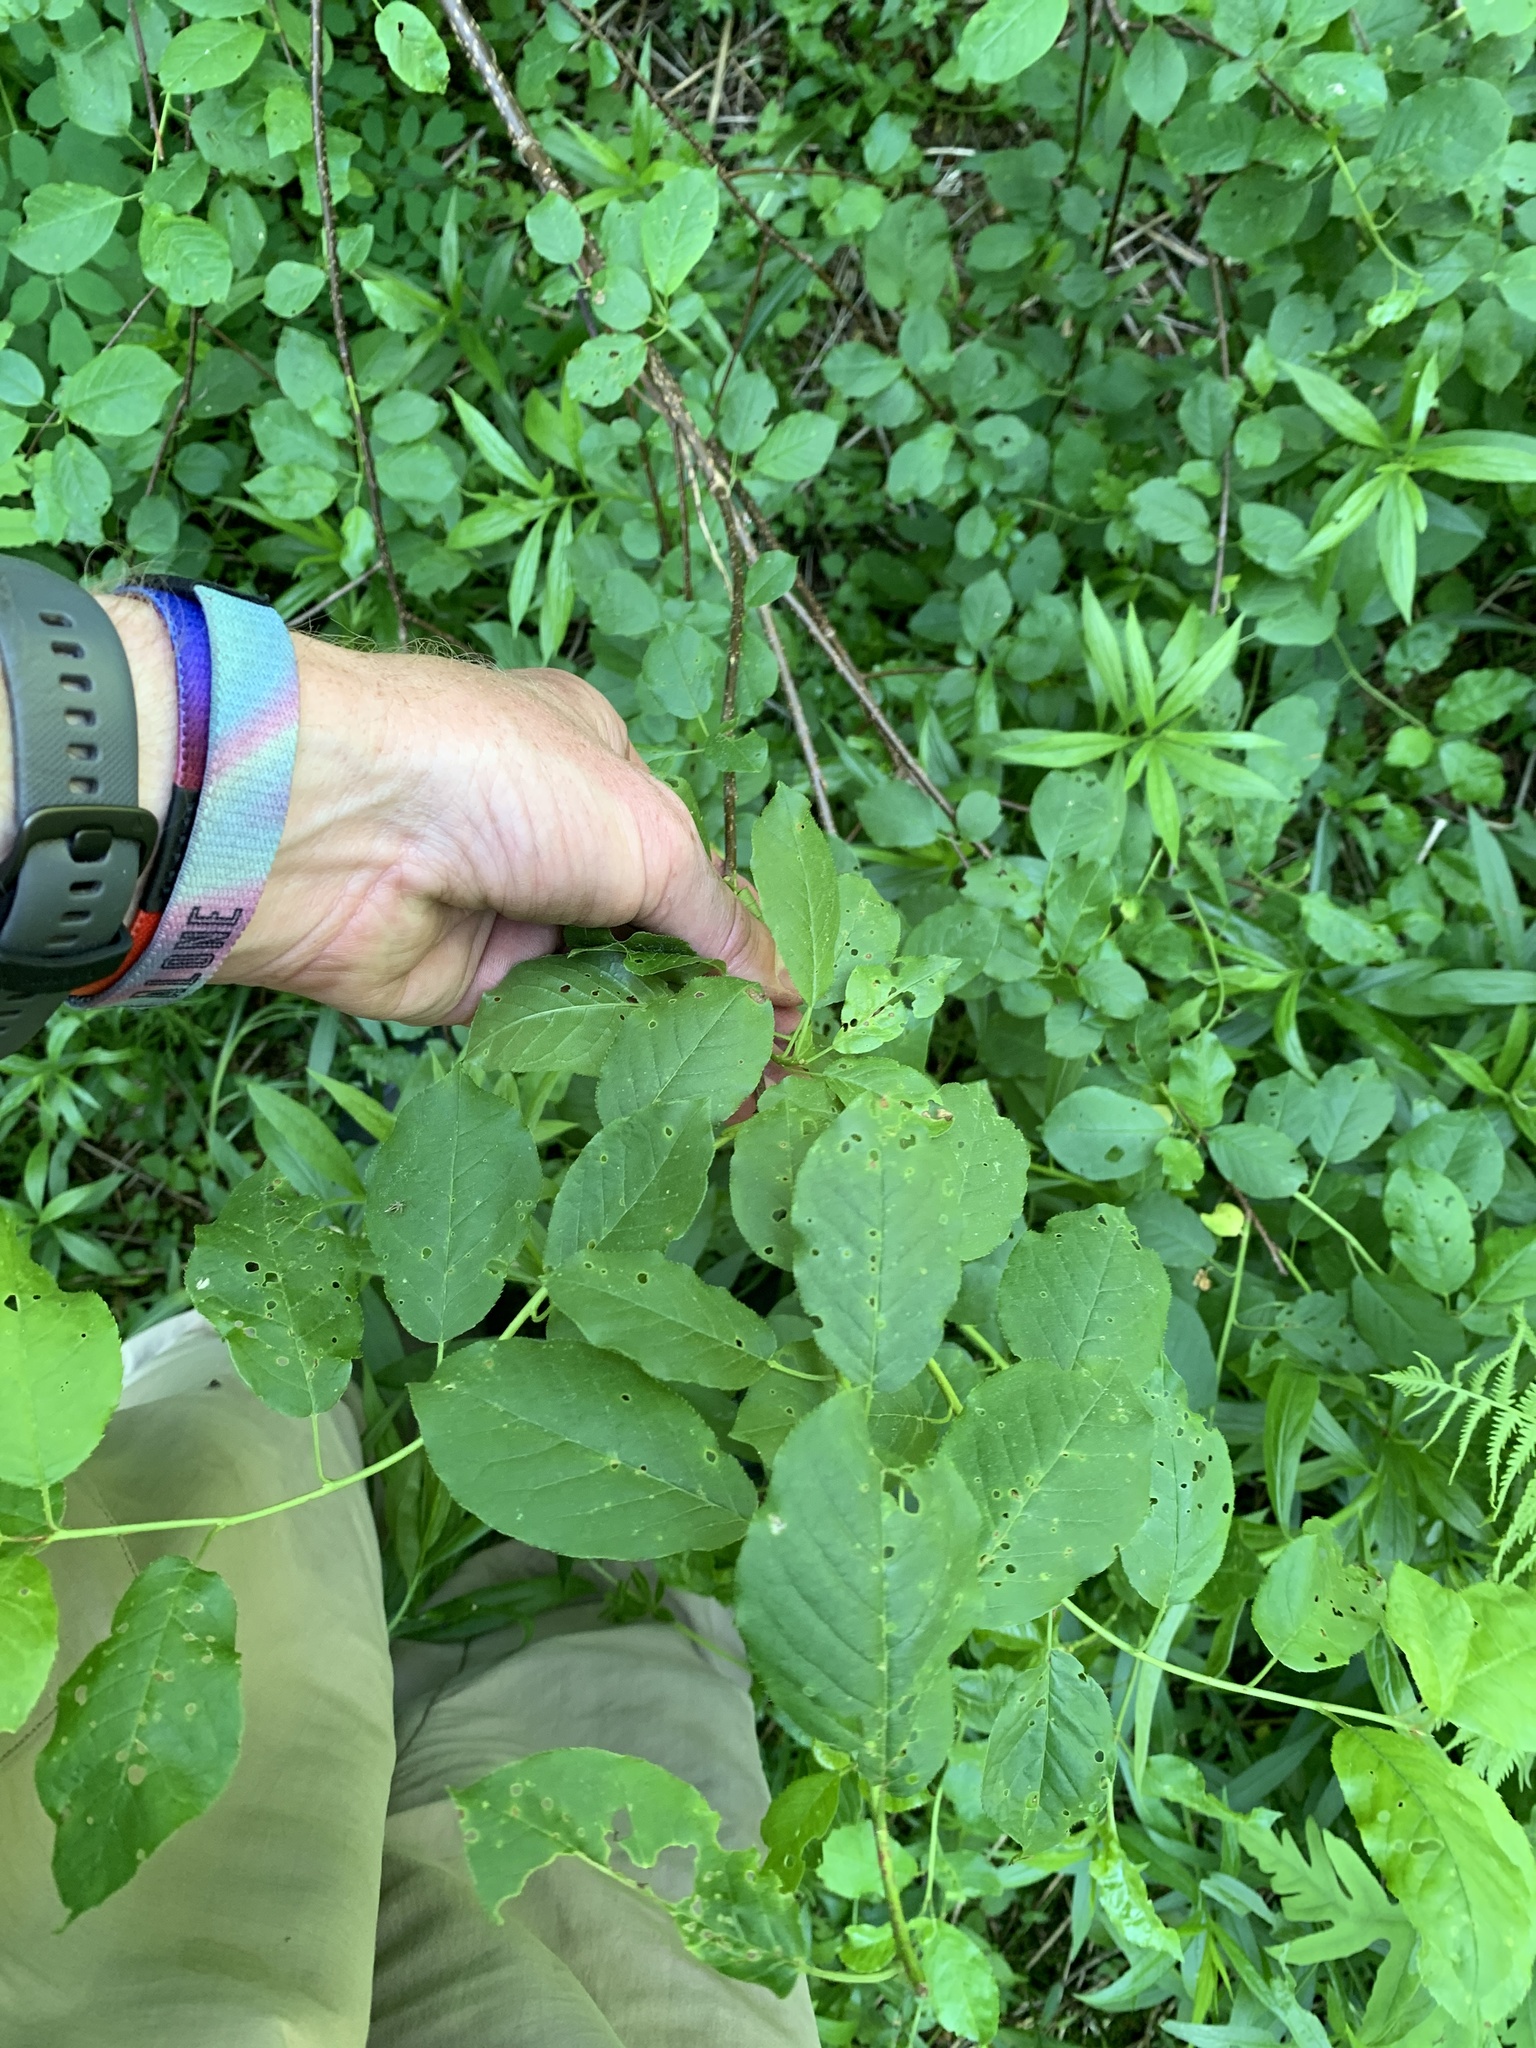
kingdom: Plantae
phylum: Tracheophyta
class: Magnoliopsida
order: Rosales
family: Rosaceae
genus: Prunus
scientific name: Prunus virginiana
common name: Chokecherry
